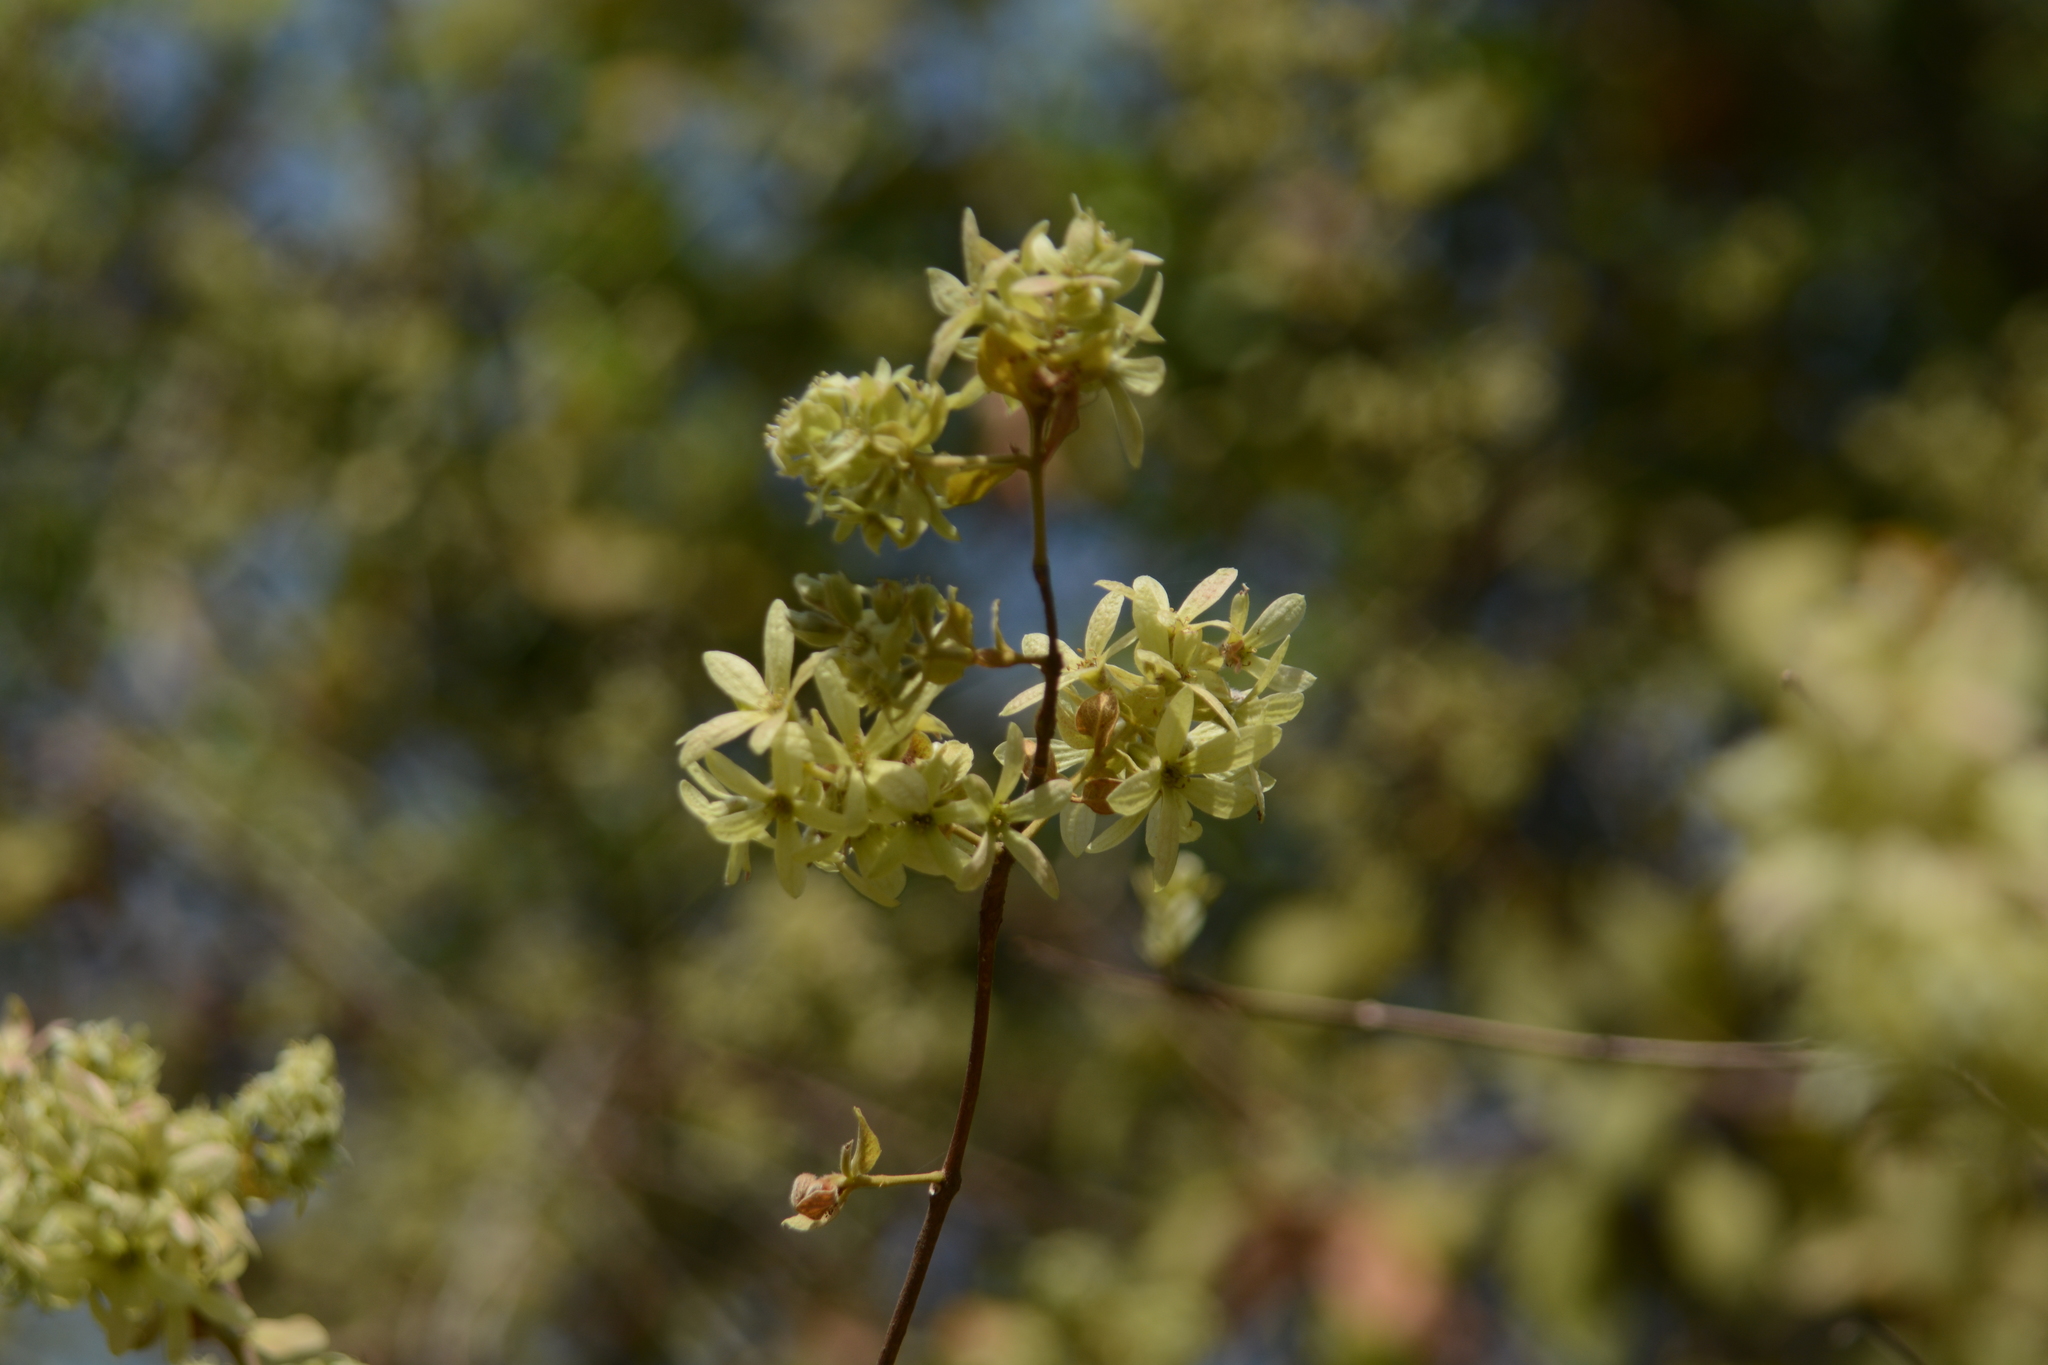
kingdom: Plantae
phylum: Tracheophyta
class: Magnoliopsida
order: Myrtales
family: Combretaceae
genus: Getonia
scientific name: Getonia floribunda
